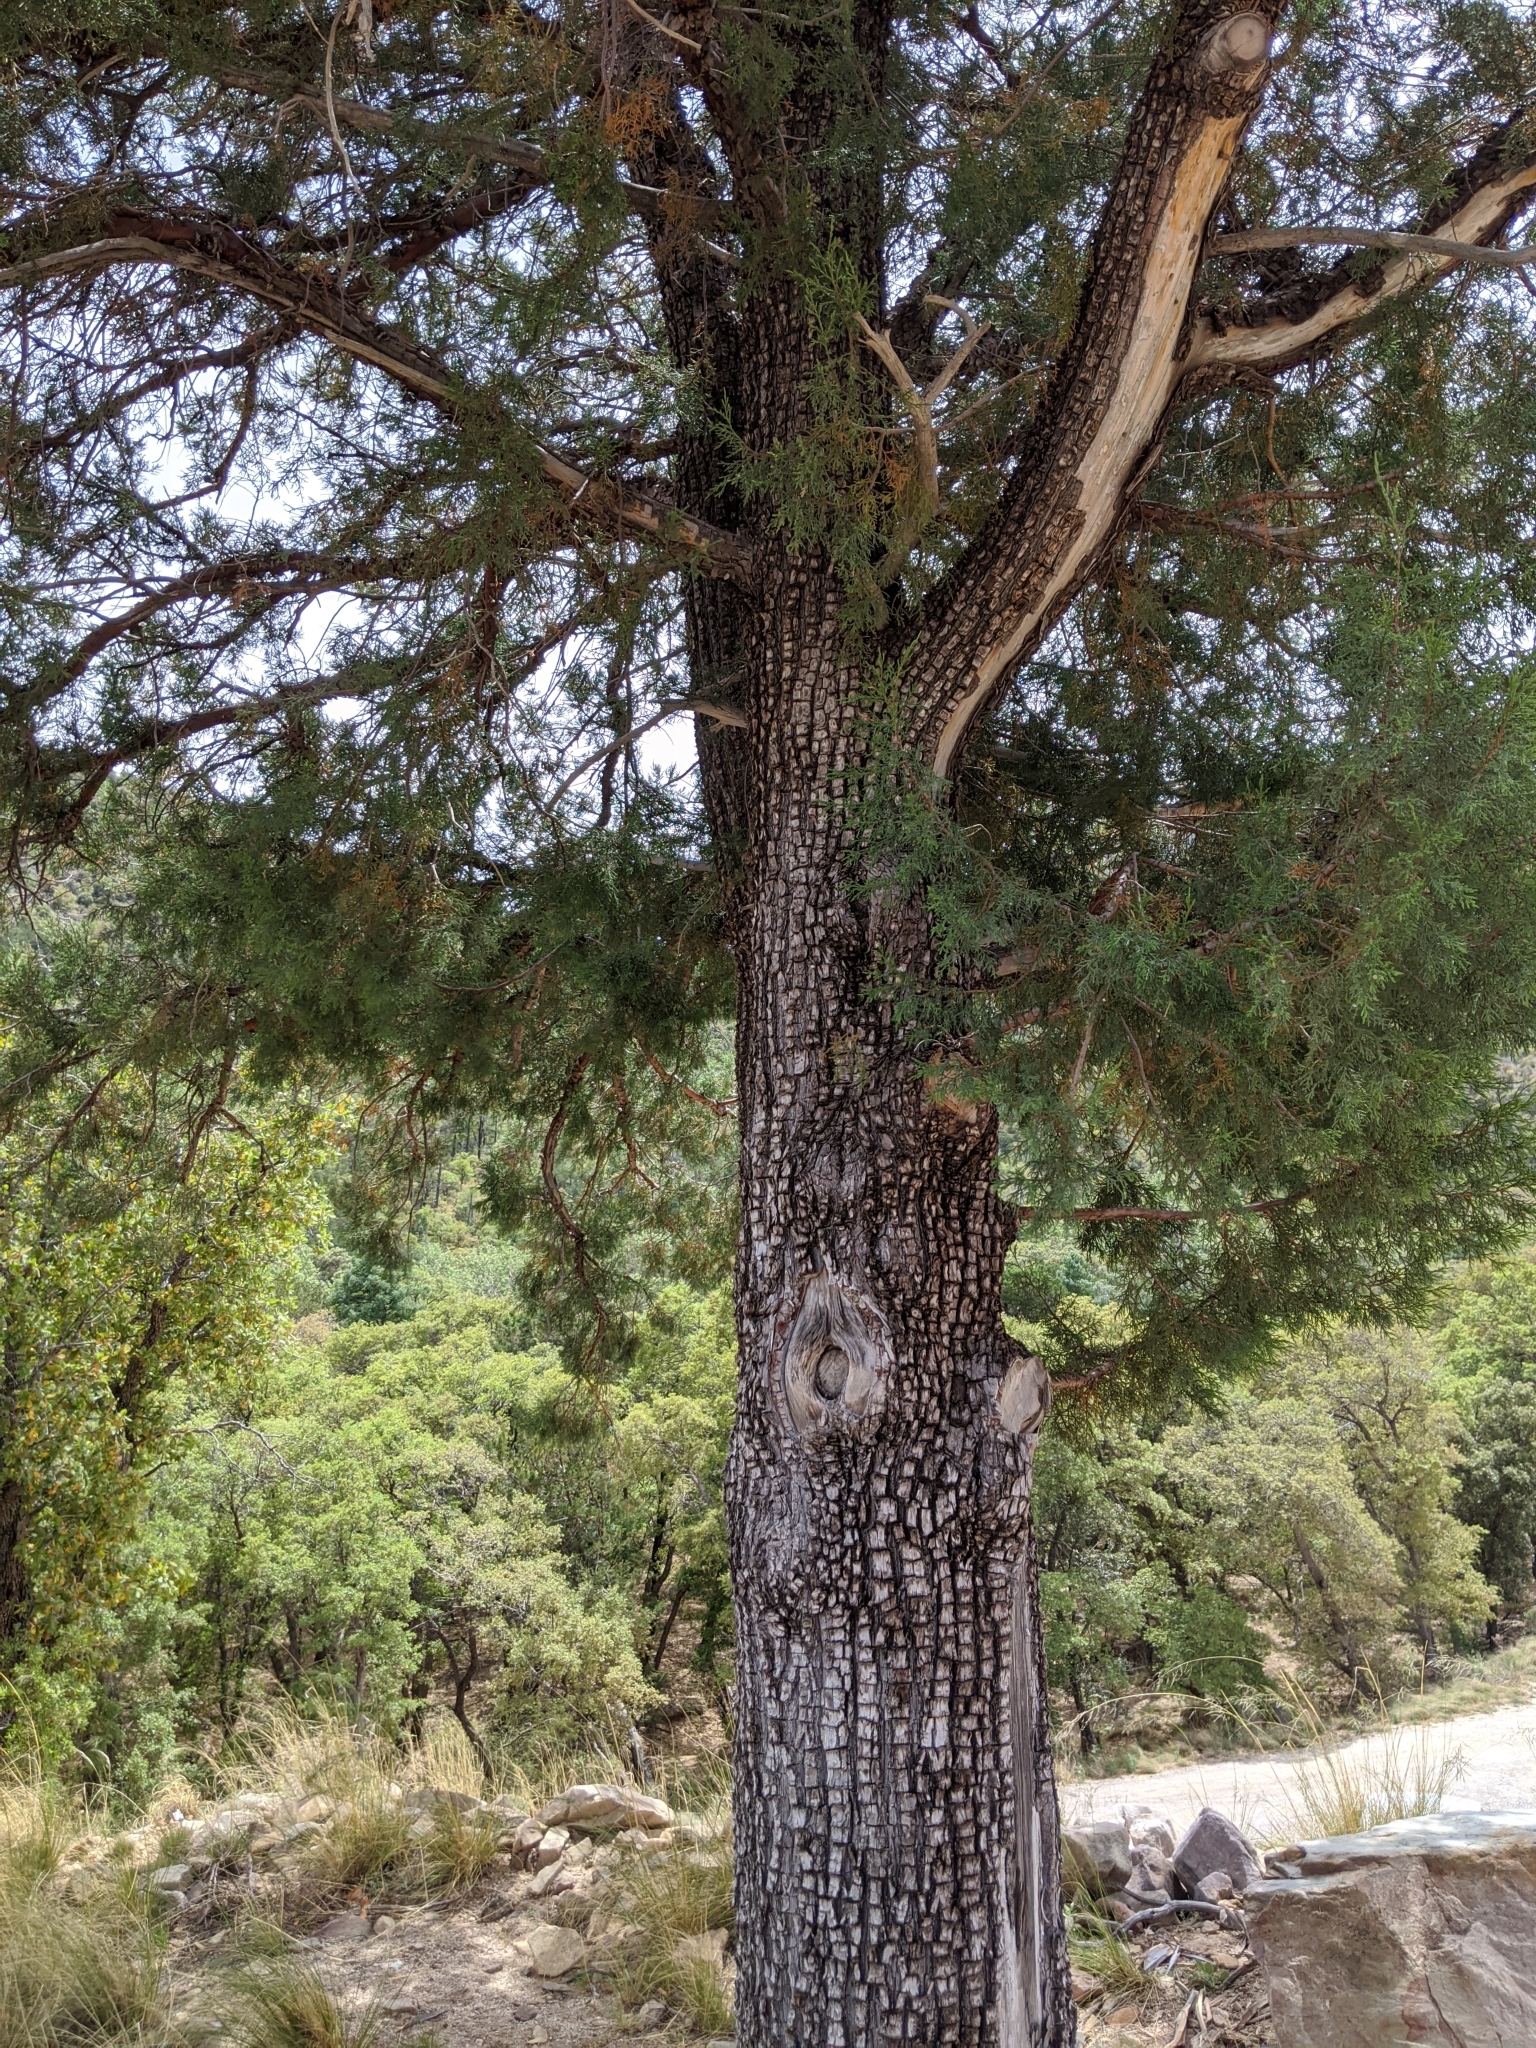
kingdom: Plantae
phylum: Tracheophyta
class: Pinopsida
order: Pinales
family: Cupressaceae
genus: Juniperus
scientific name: Juniperus deppeana
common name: Alligator juniper
